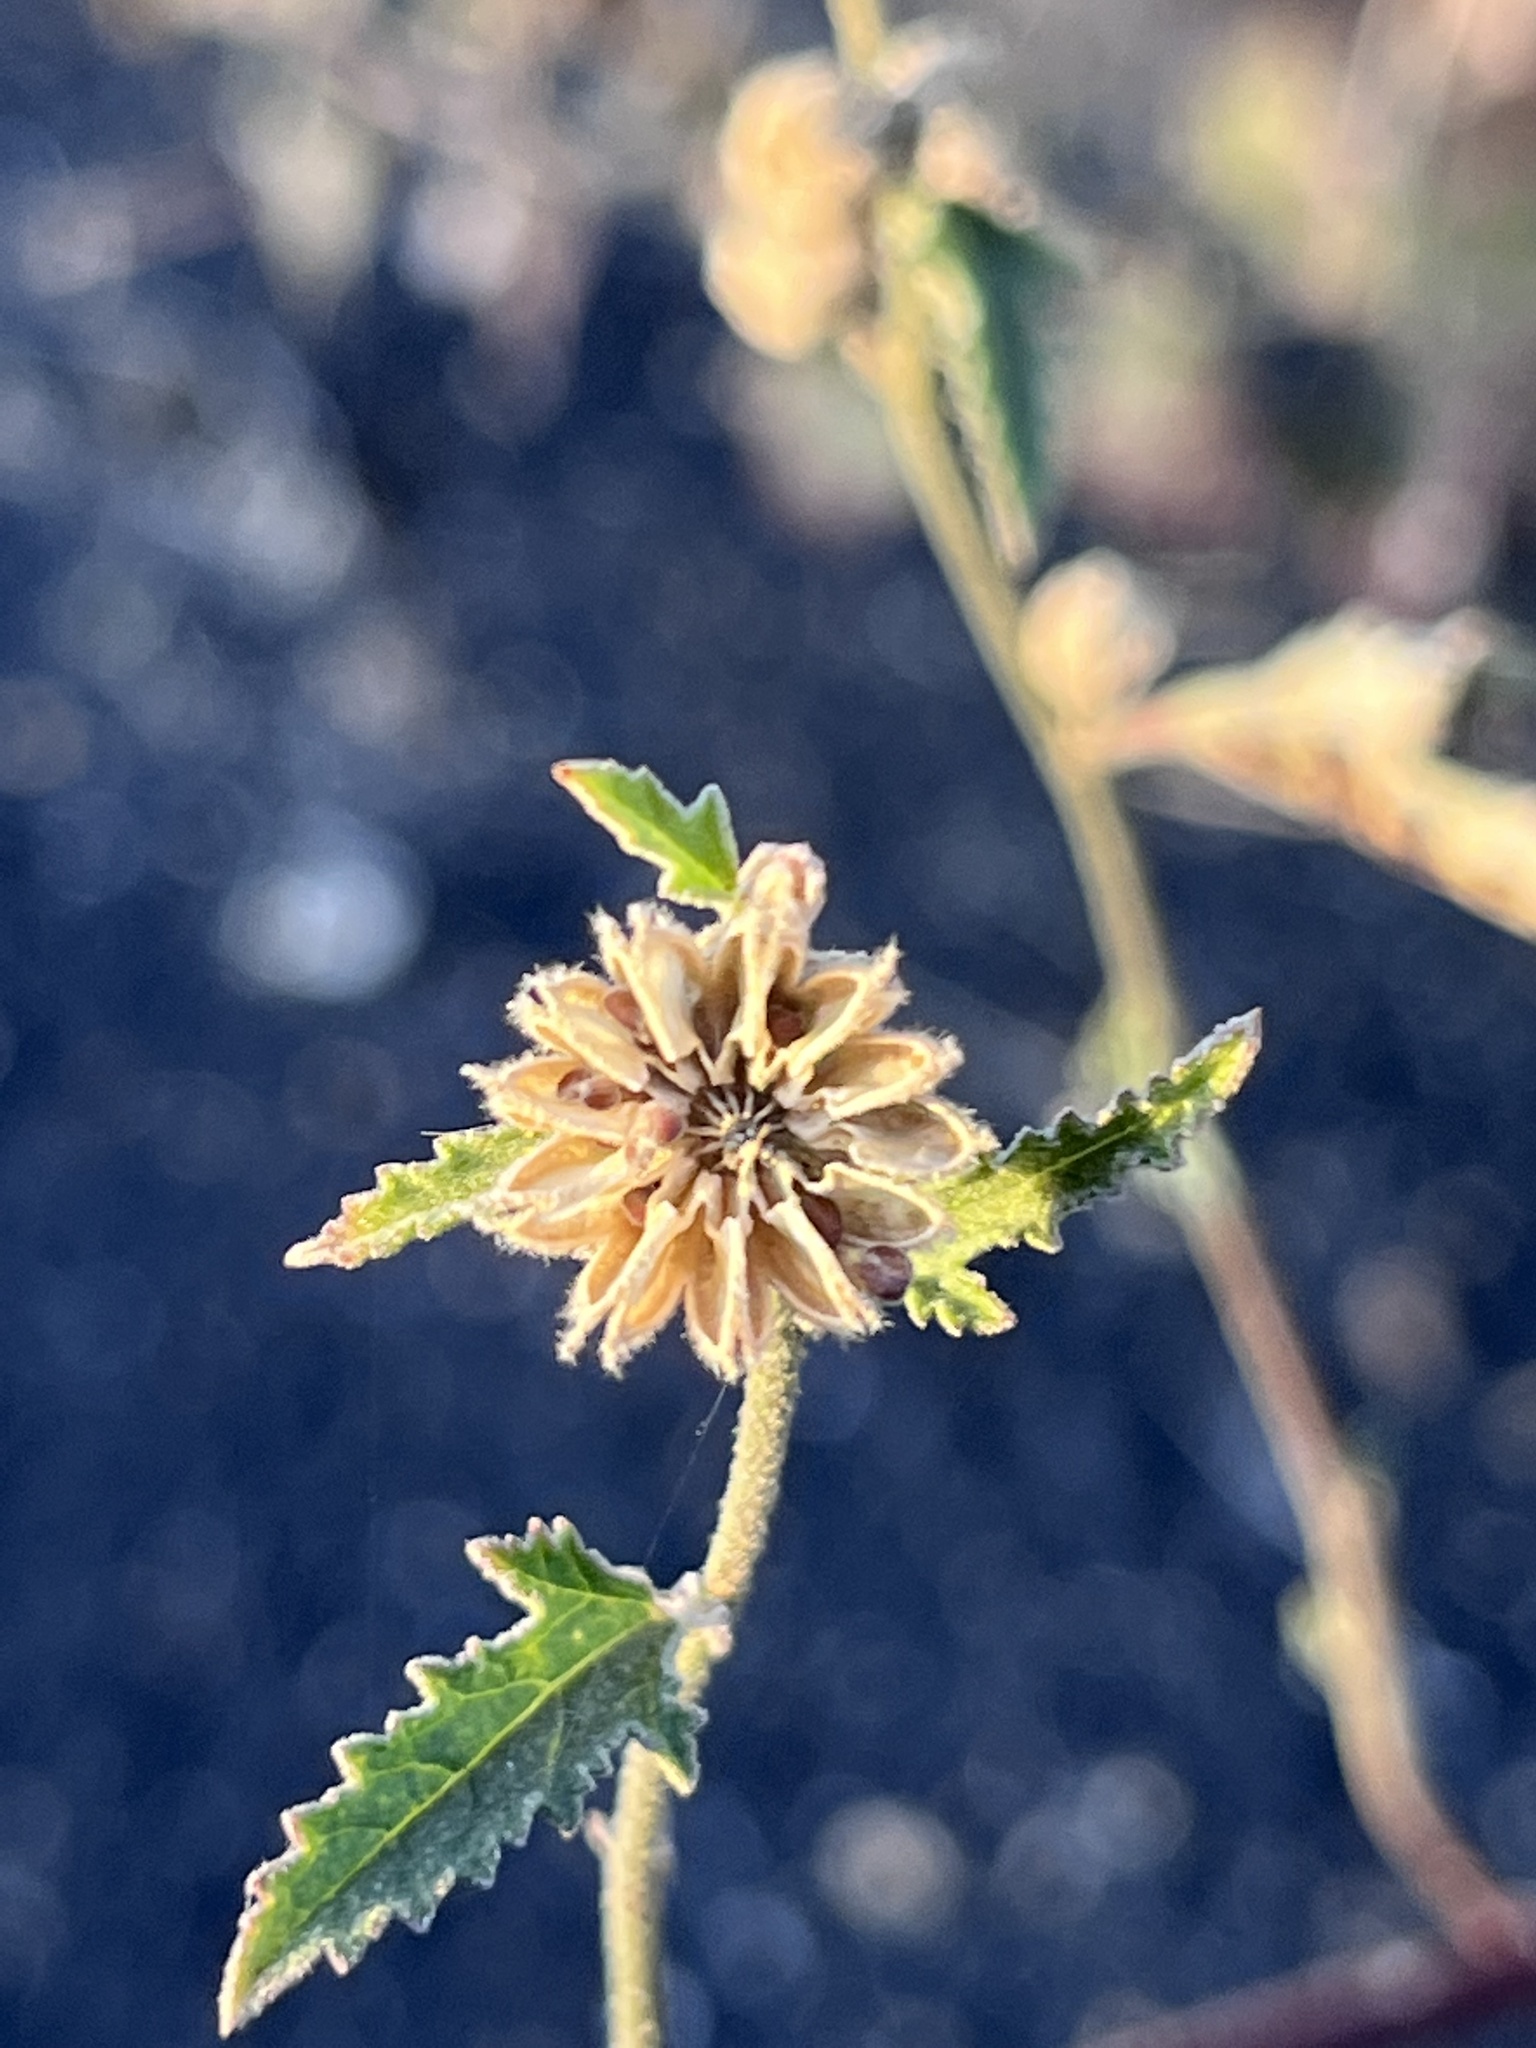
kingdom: Plantae
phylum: Tracheophyta
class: Magnoliopsida
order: Malvales
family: Malvaceae
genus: Sphaeralcea
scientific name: Sphaeralcea fendleri
